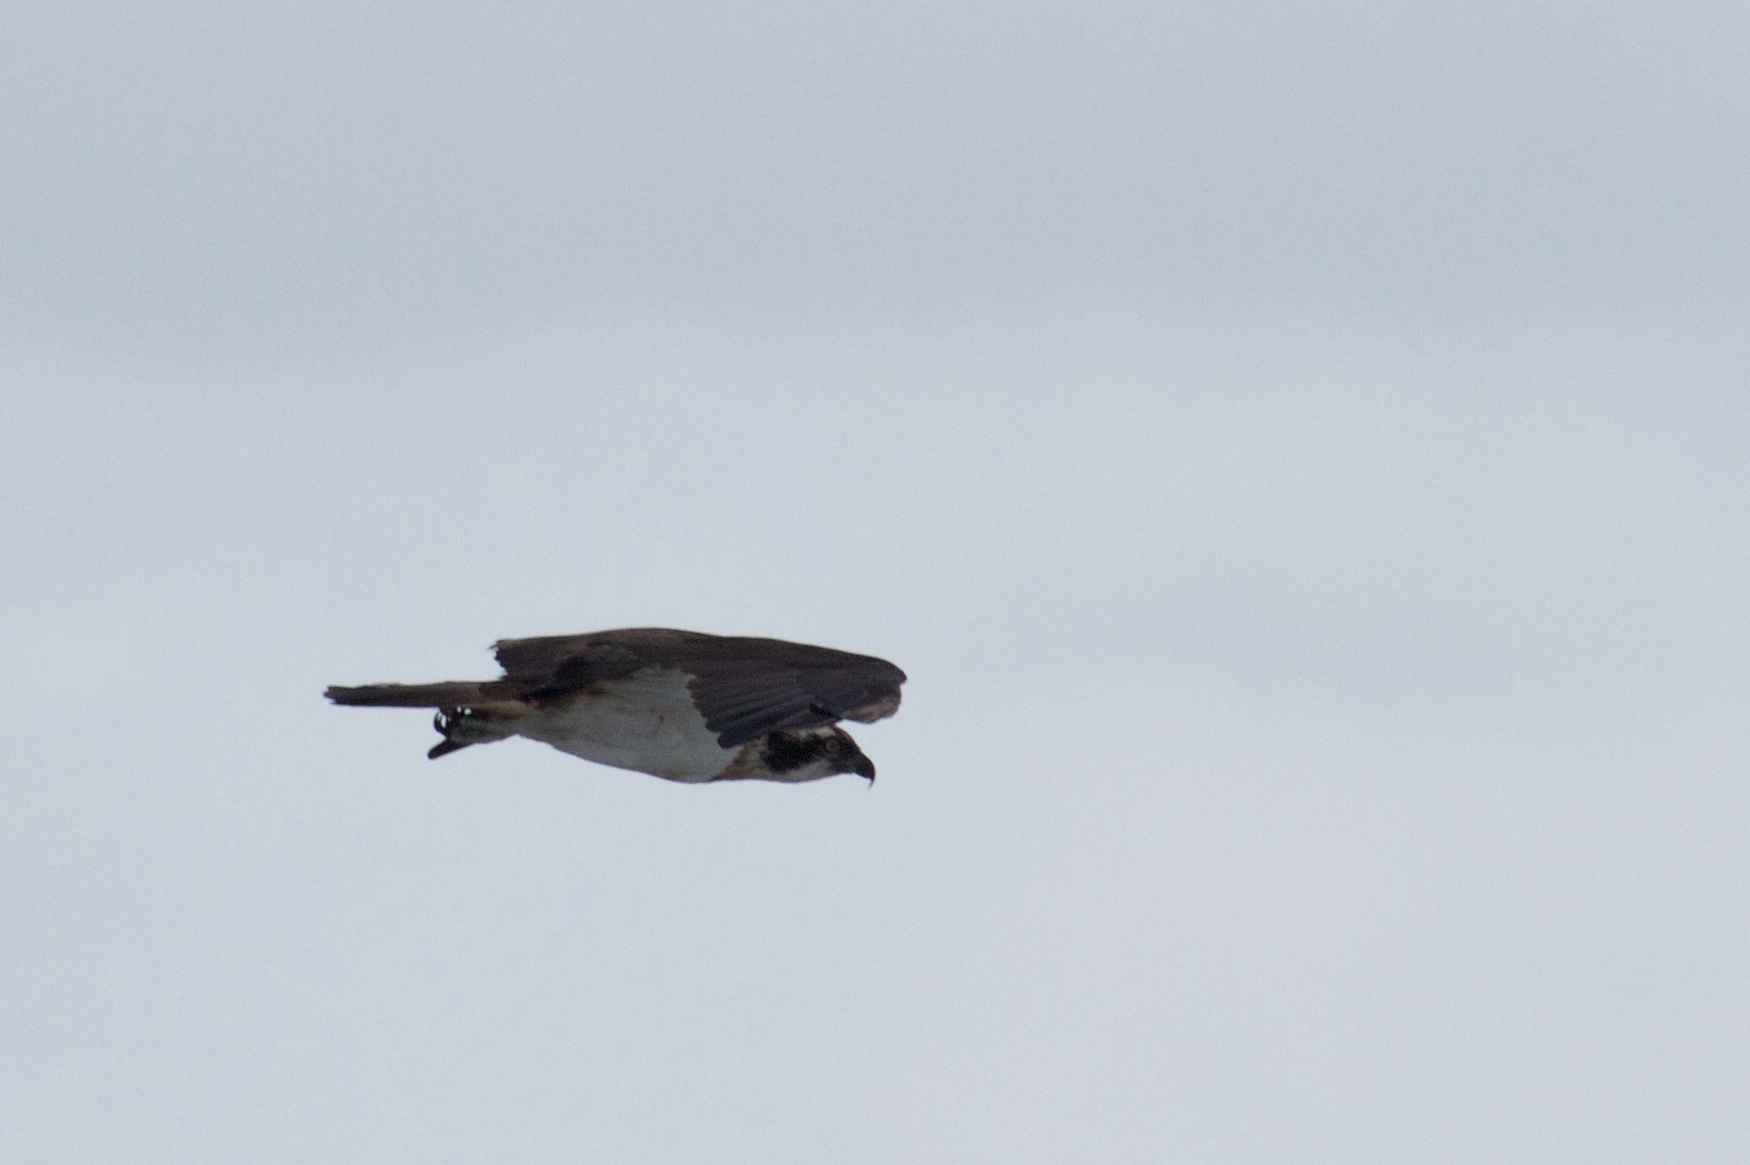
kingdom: Animalia
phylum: Chordata
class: Aves
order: Accipitriformes
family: Pandionidae
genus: Pandion
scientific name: Pandion haliaetus
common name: Osprey
